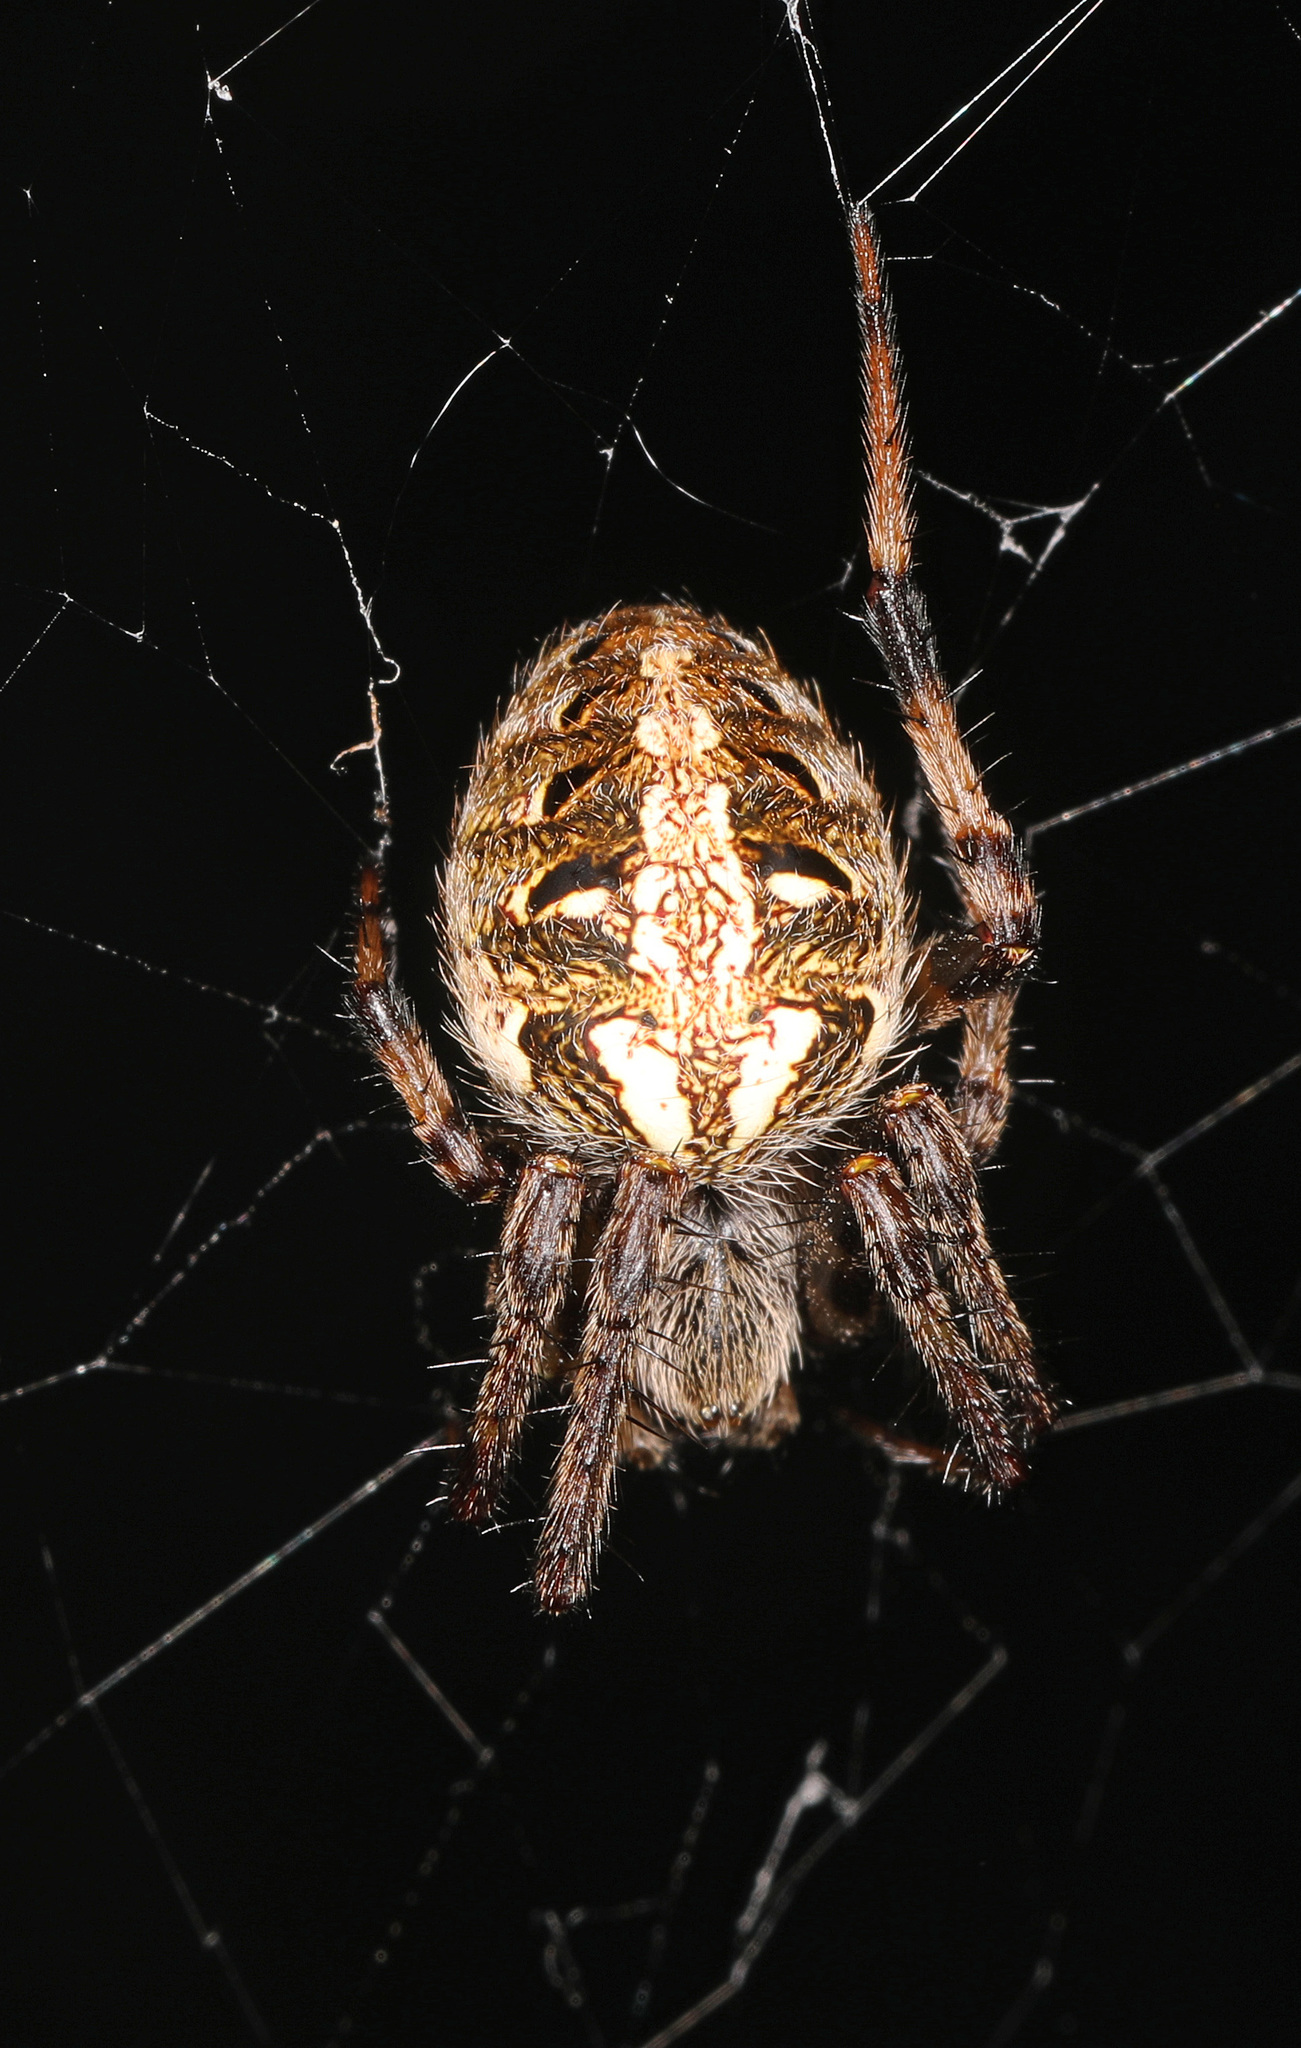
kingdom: Animalia
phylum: Arthropoda
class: Arachnida
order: Araneae
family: Araneidae
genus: Neoscona
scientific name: Neoscona arabesca
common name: Orb weavers
